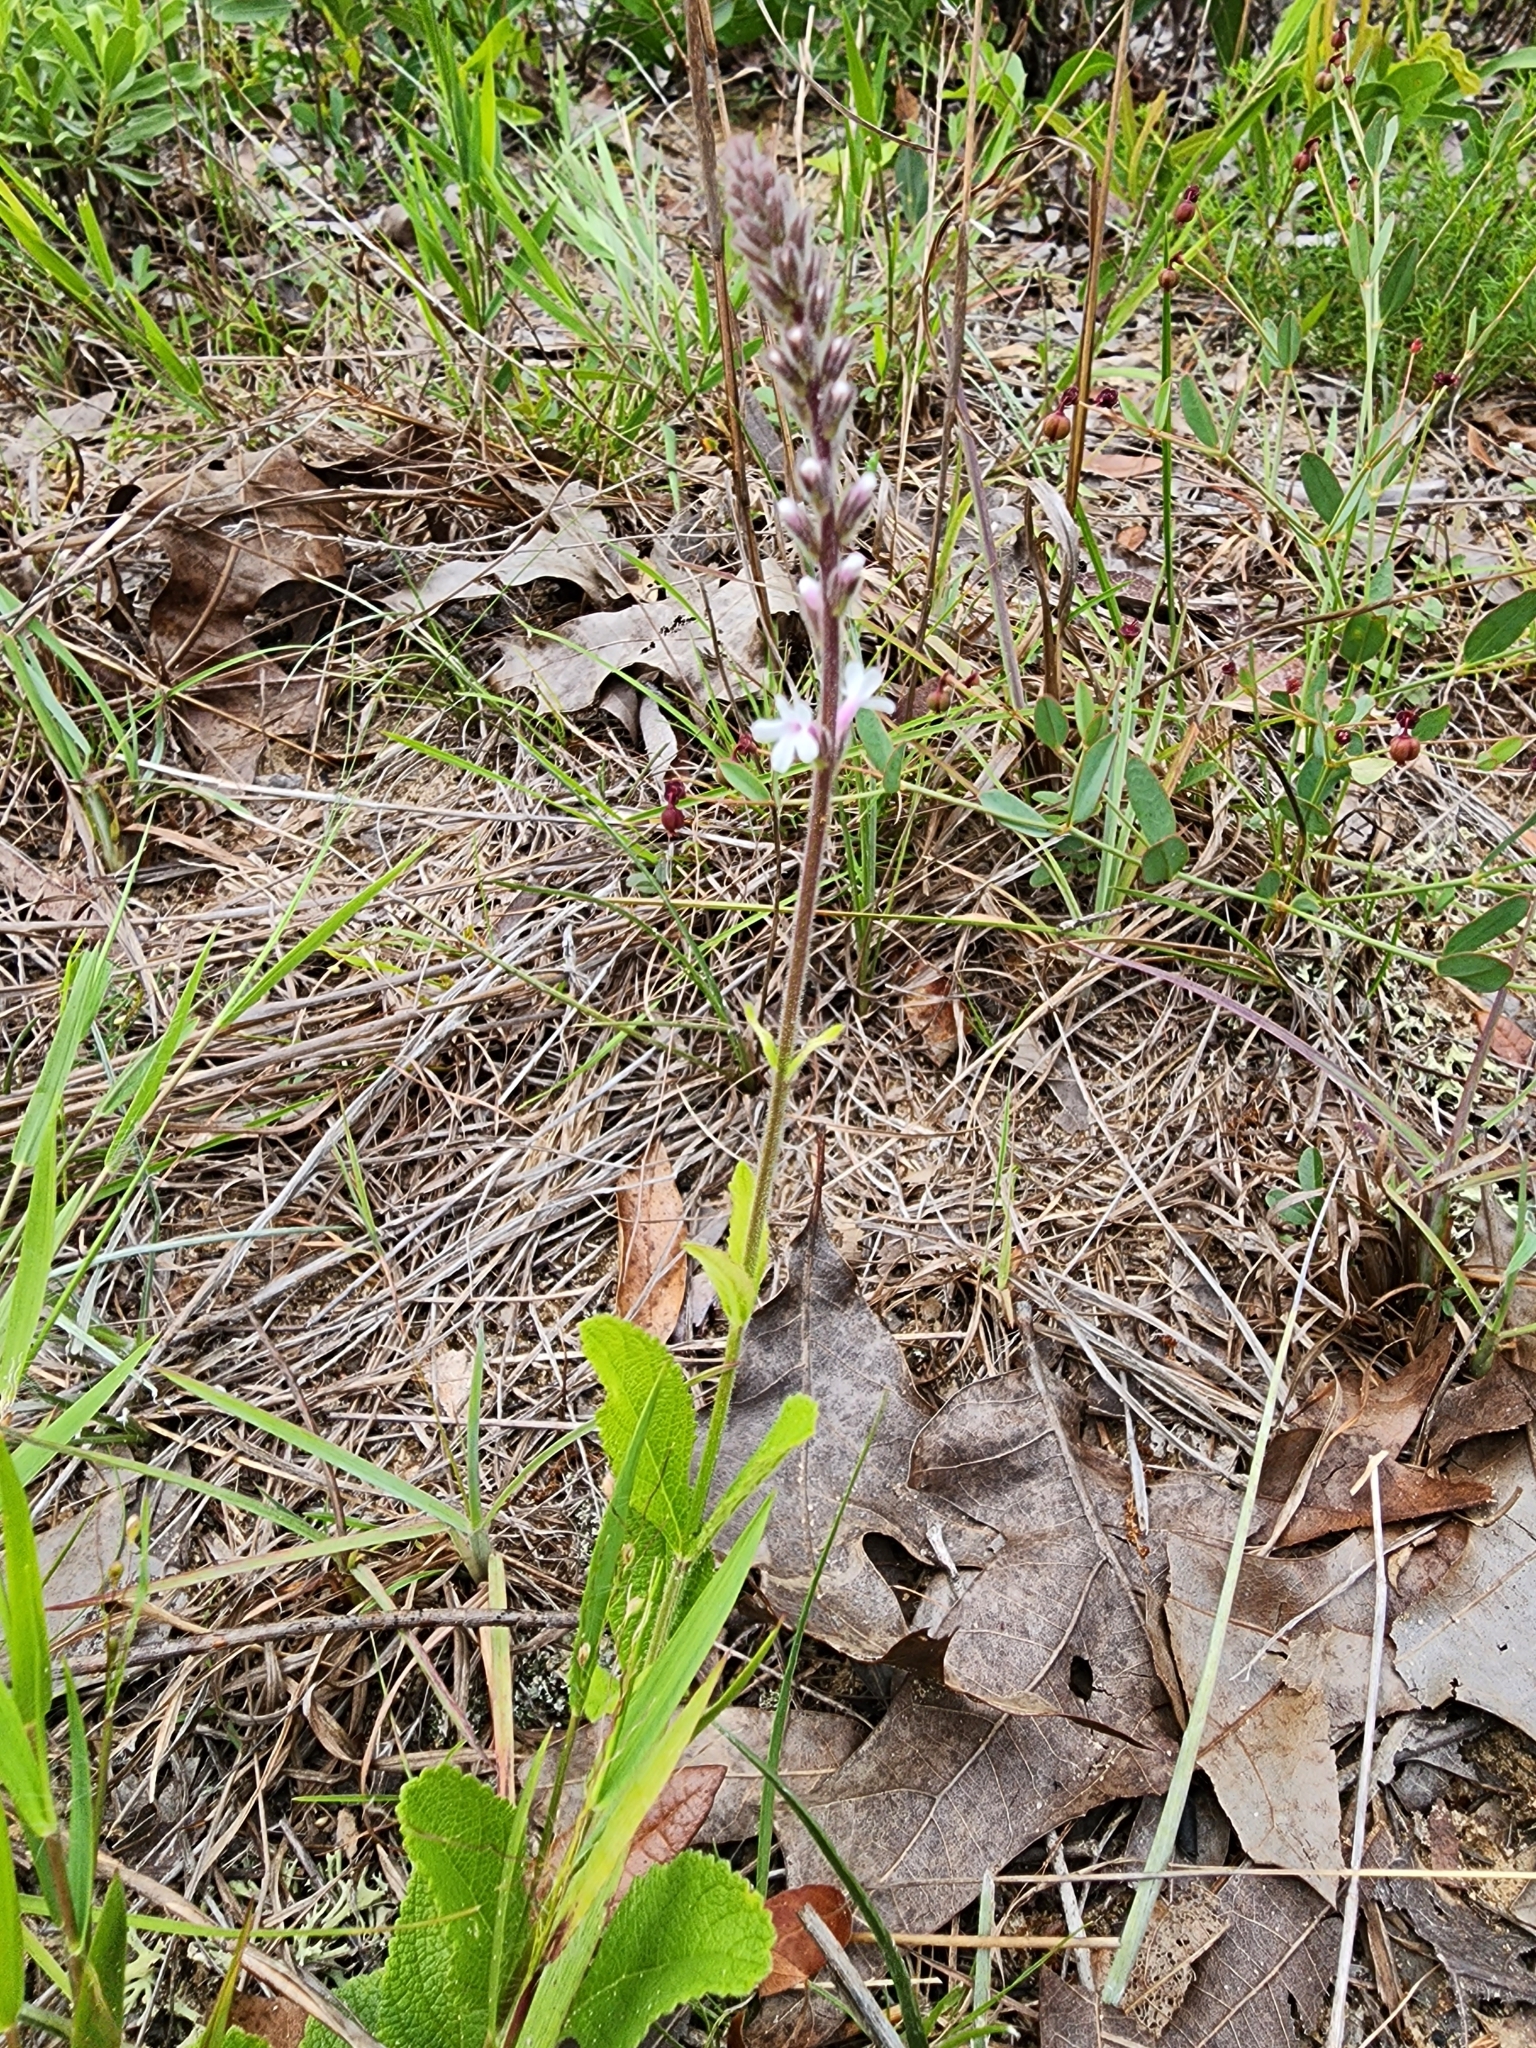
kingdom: Plantae
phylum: Tracheophyta
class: Magnoliopsida
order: Lamiales
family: Verbenaceae
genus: Verbena
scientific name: Verbena carnea
